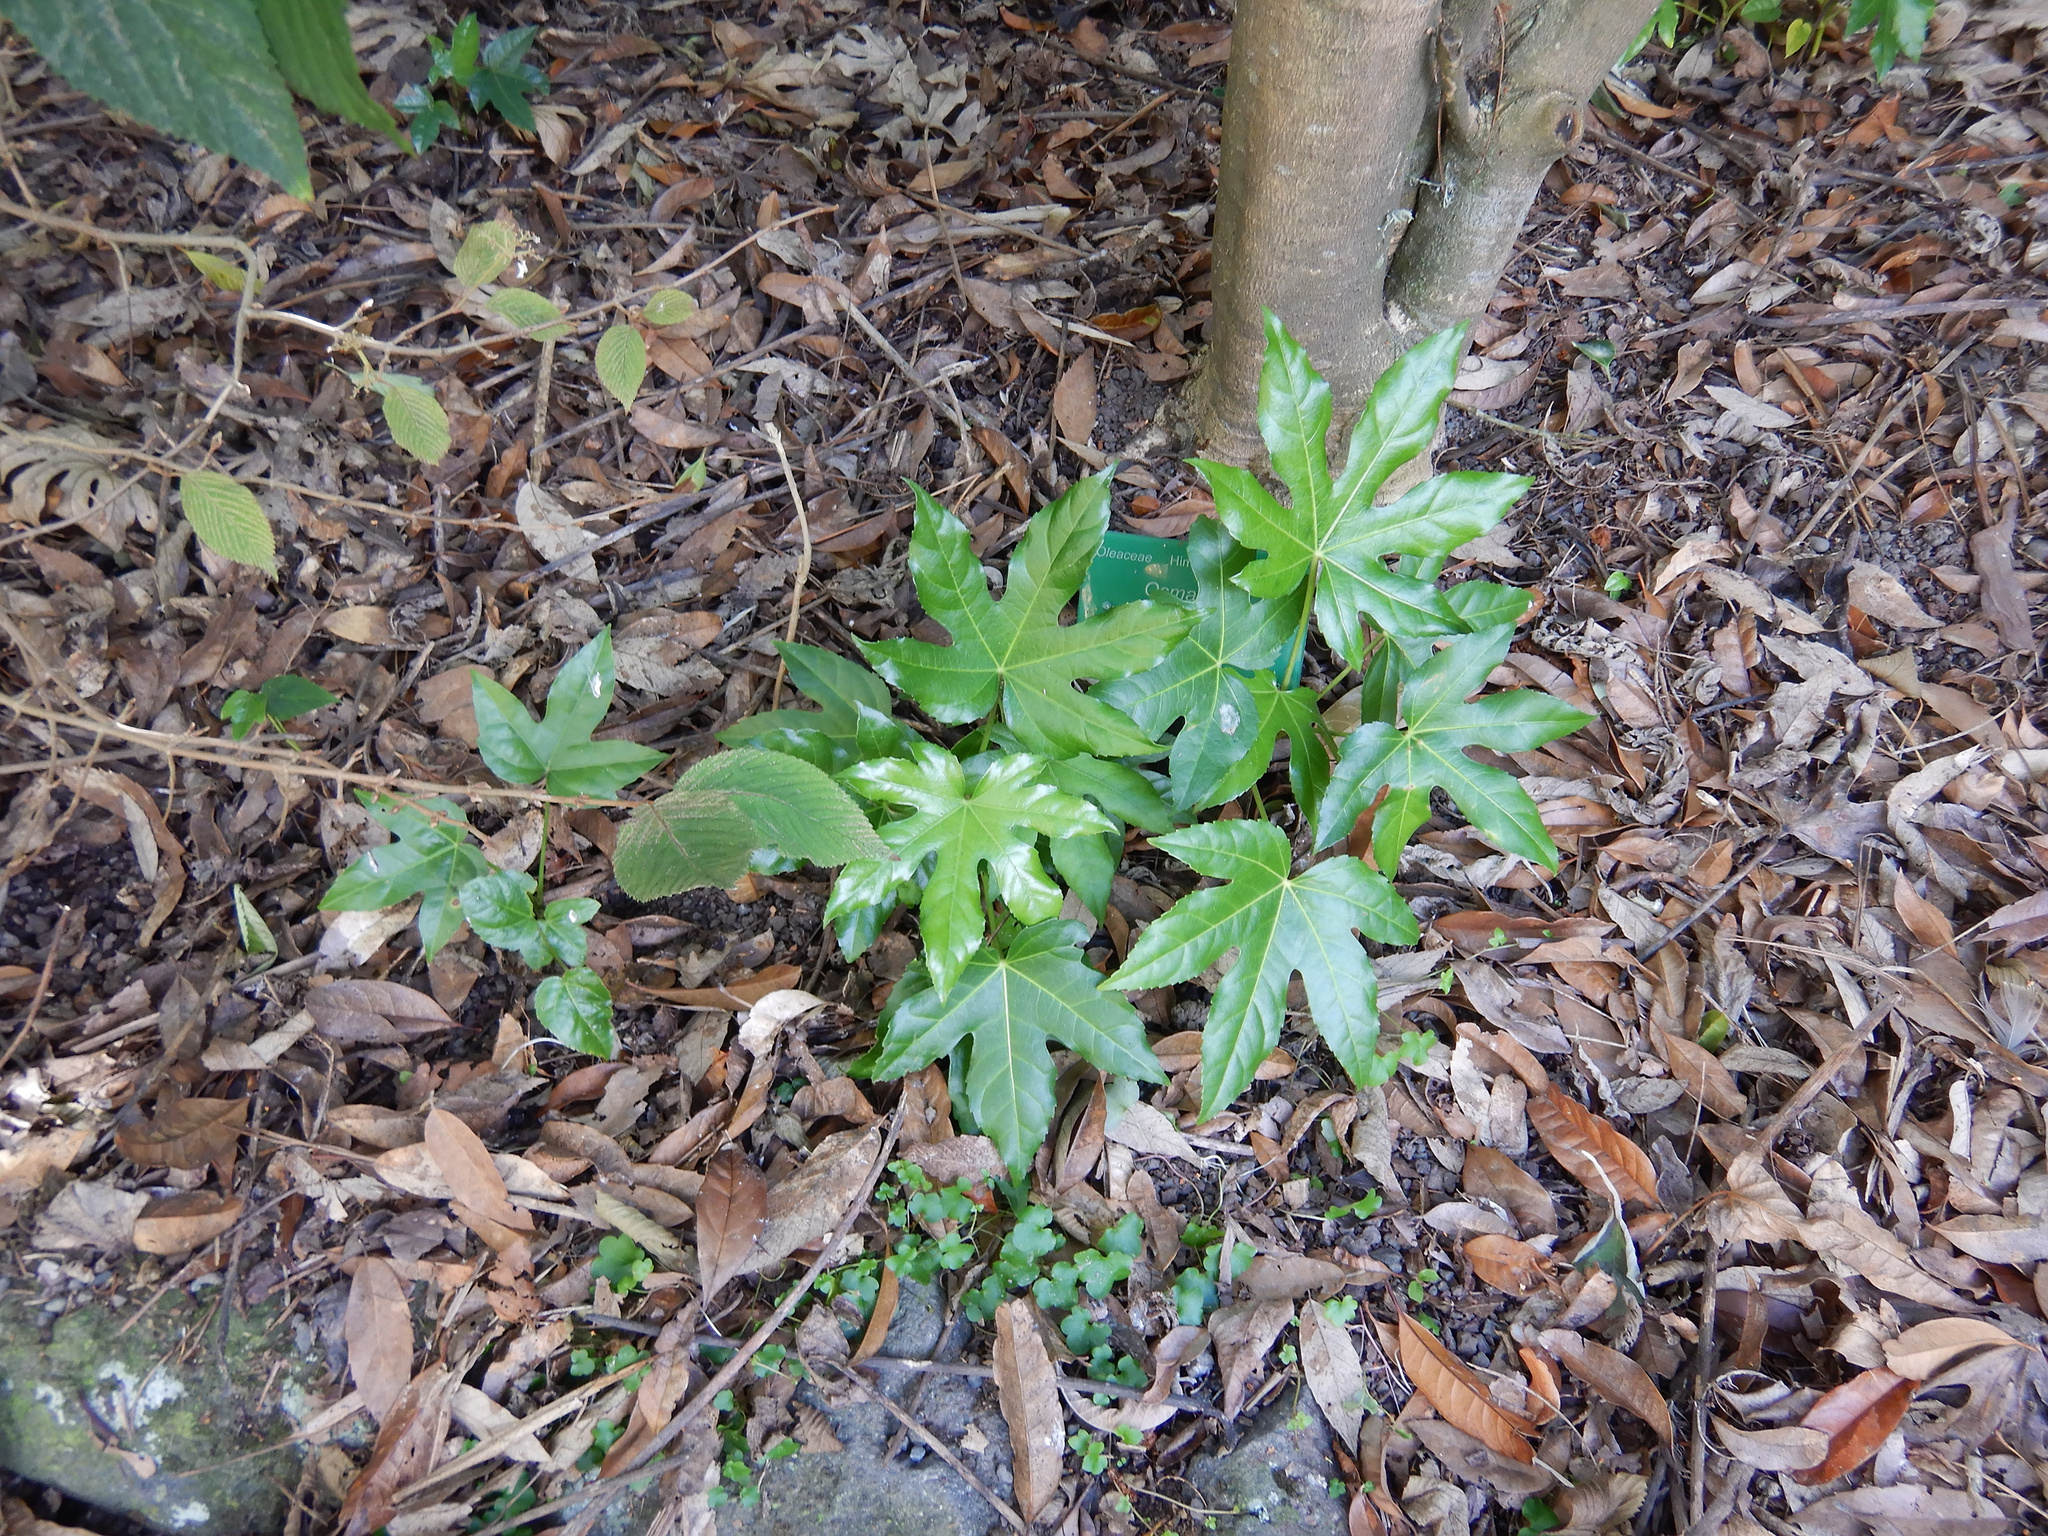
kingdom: Plantae
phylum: Tracheophyta
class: Magnoliopsida
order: Apiales
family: Araliaceae
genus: Fatsia
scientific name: Fatsia japonica
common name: Fatsia
